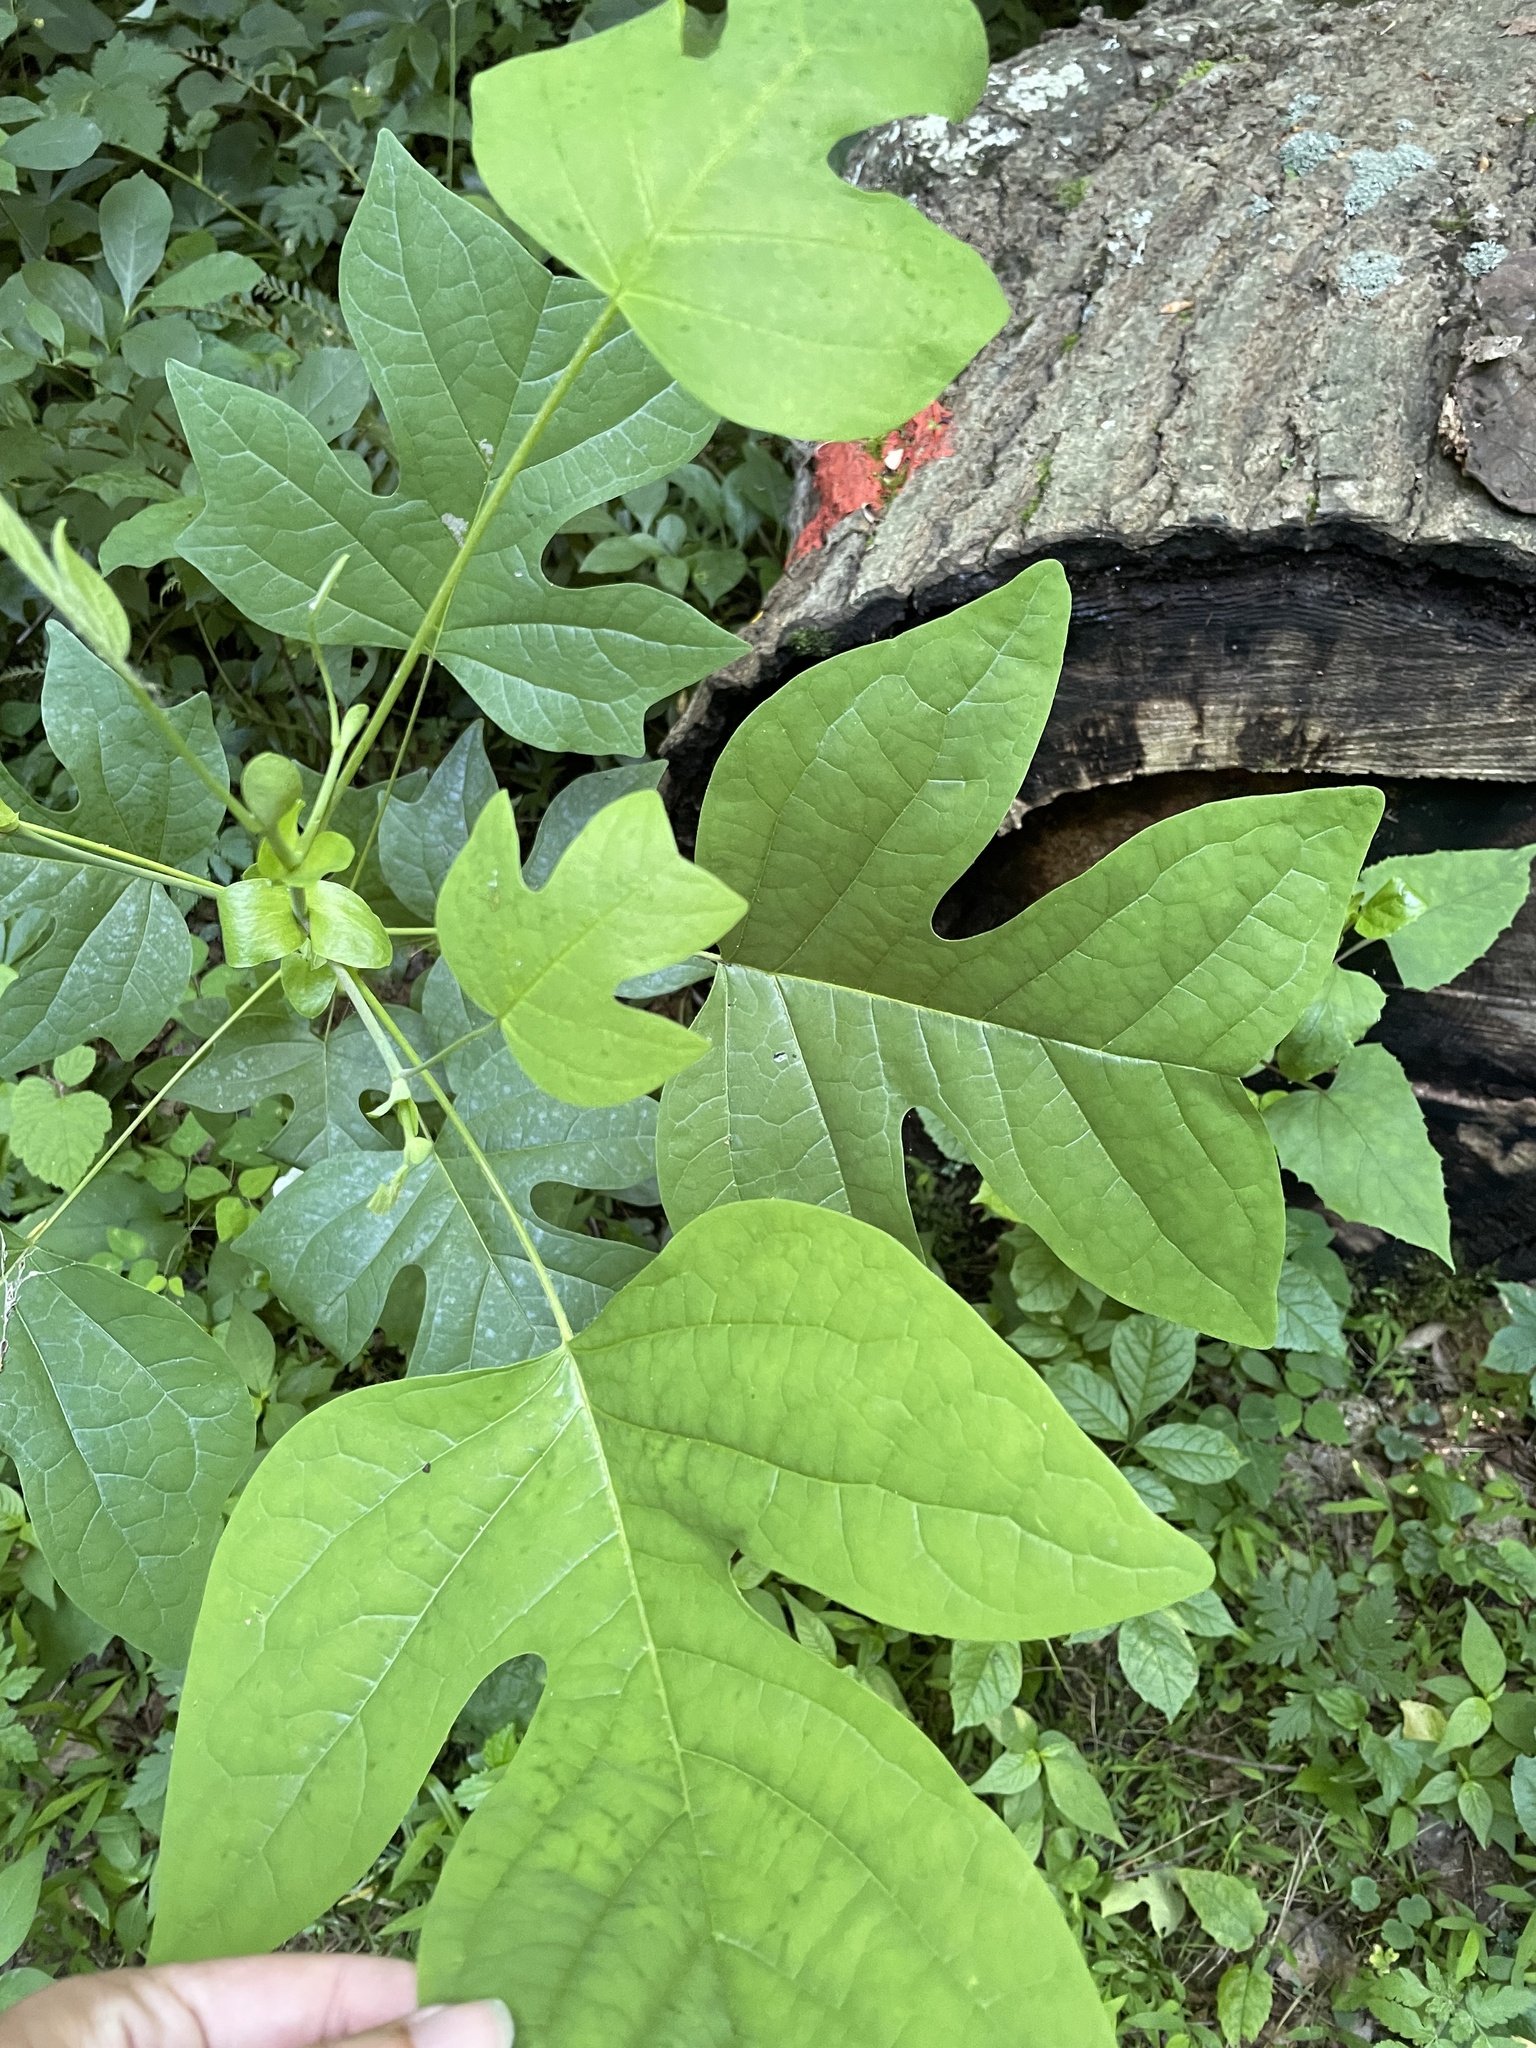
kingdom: Plantae
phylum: Tracheophyta
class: Magnoliopsida
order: Magnoliales
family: Magnoliaceae
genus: Liriodendron
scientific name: Liriodendron tulipifera
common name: Tulip tree
